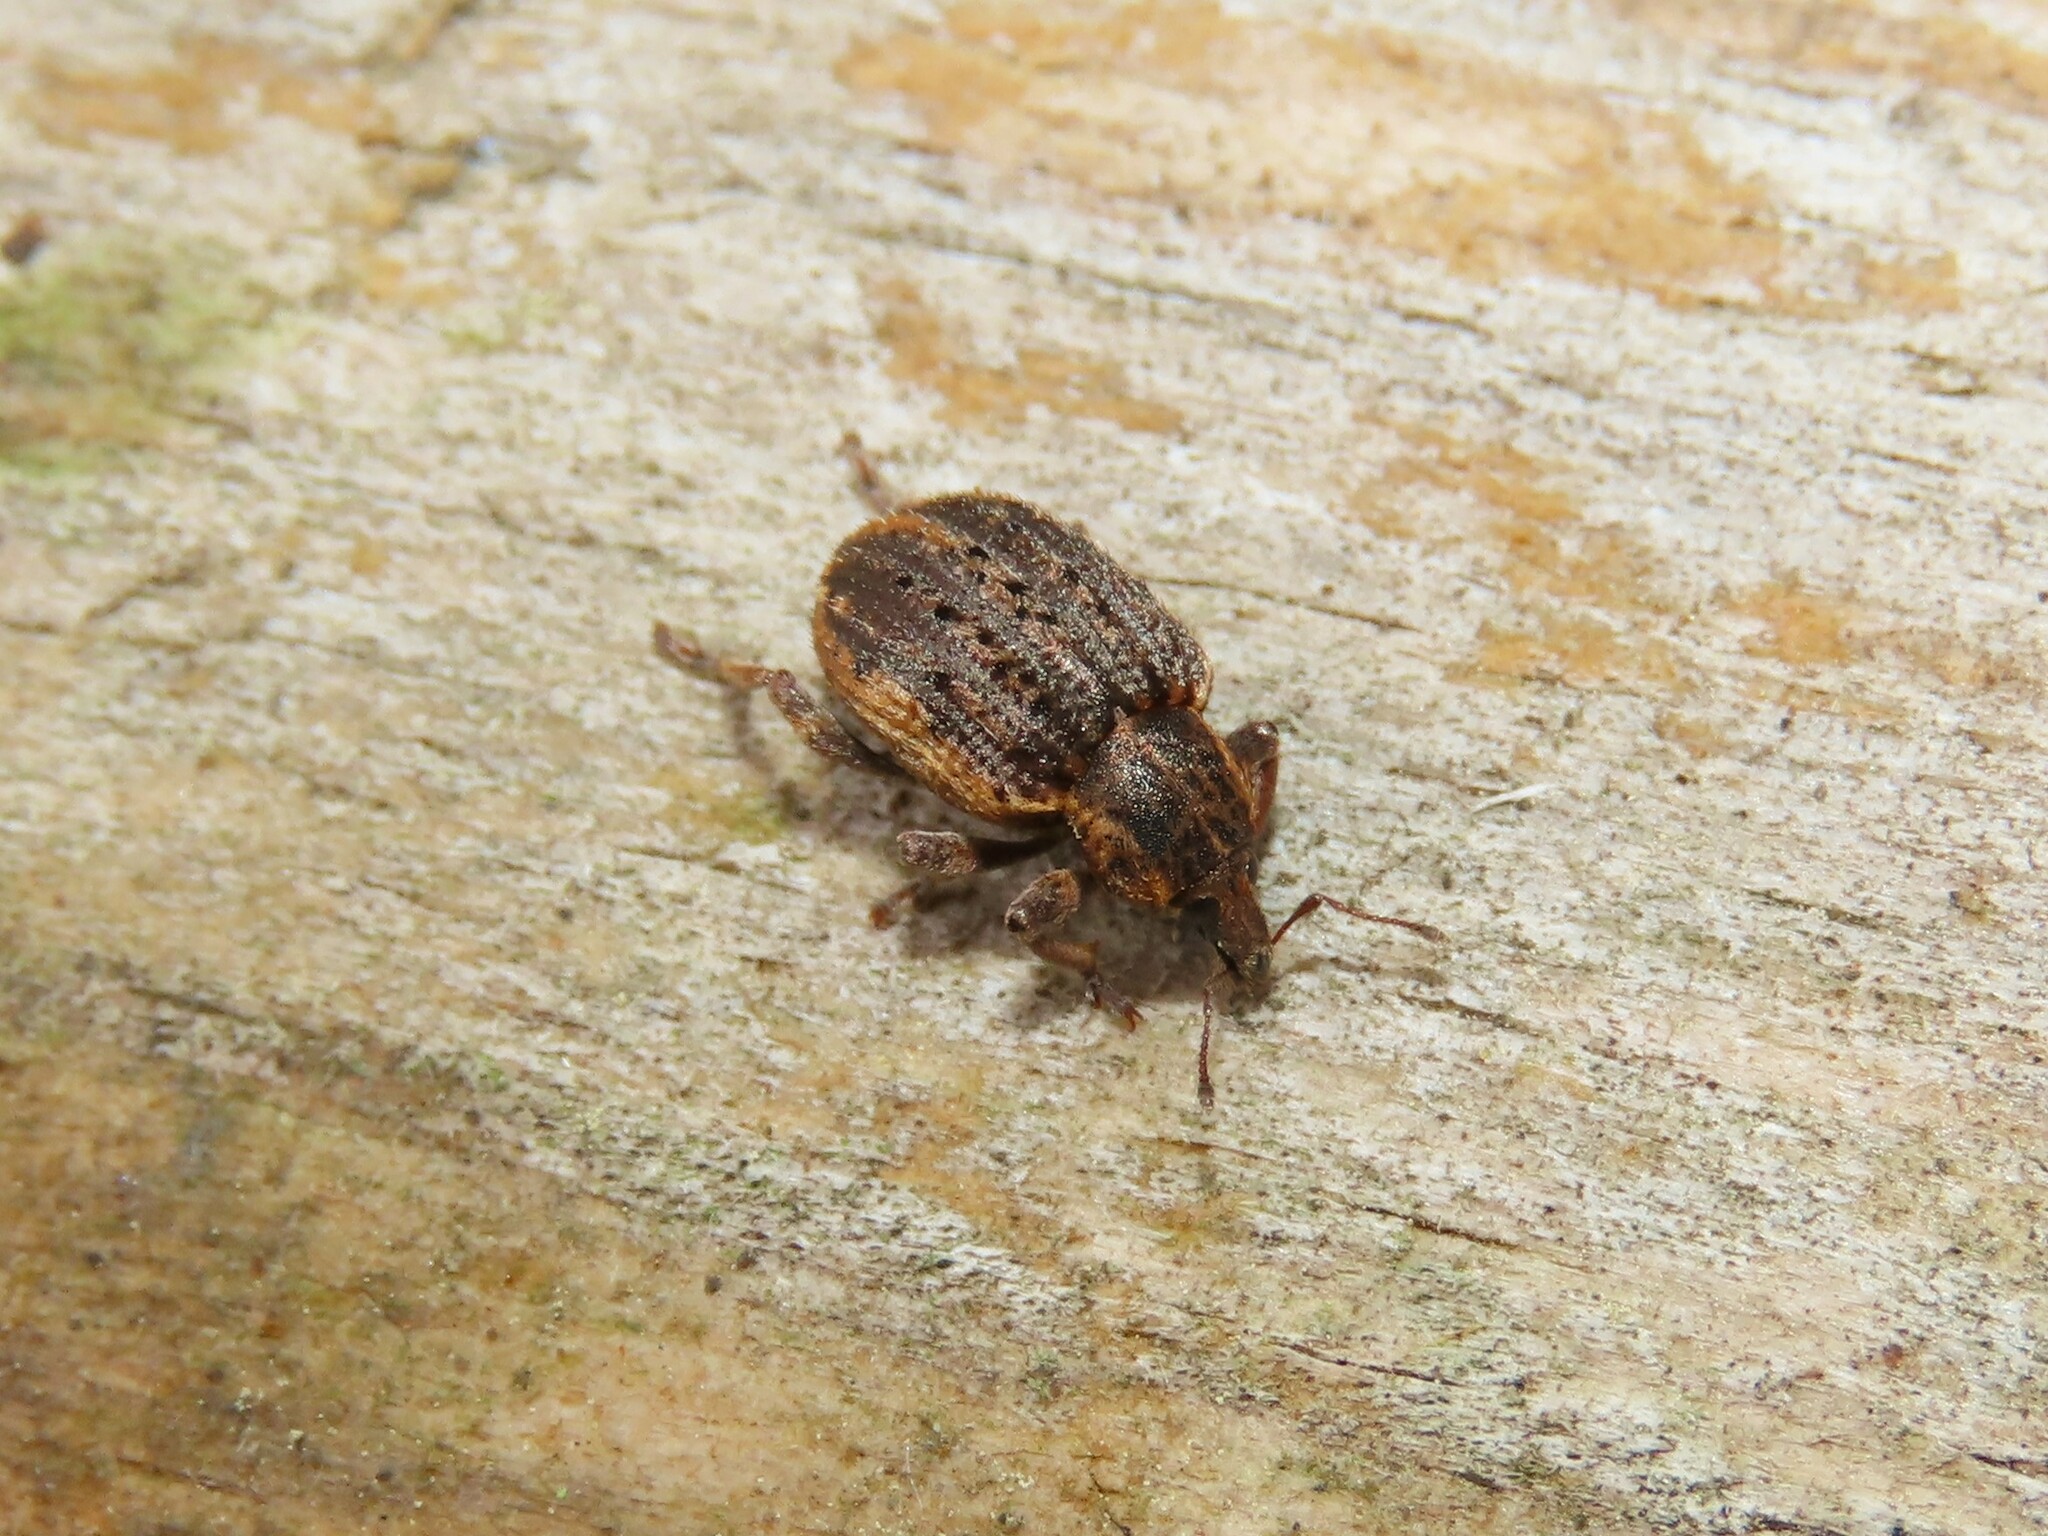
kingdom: Animalia
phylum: Arthropoda
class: Insecta
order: Coleoptera
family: Curculionidae
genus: Brachypera
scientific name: Brachypera zoilus
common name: Clover leaf weevil
